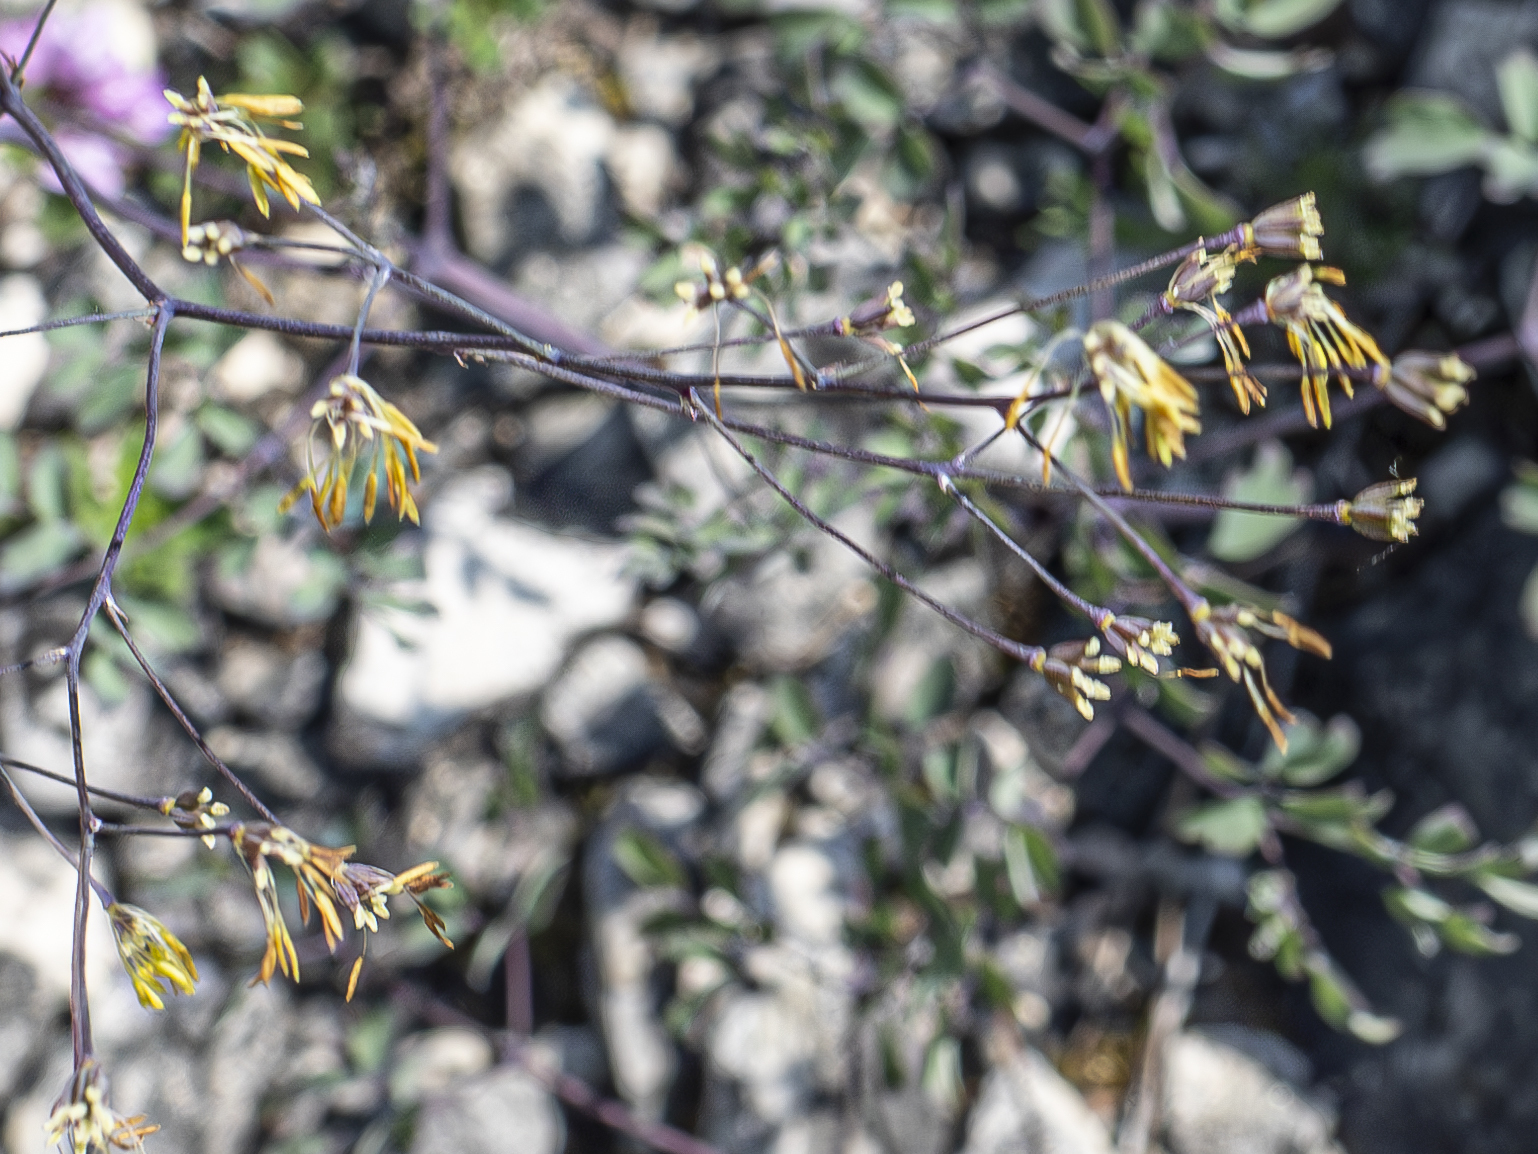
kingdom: Plantae
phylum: Tracheophyta
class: Magnoliopsida
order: Ranunculales
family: Ranunculaceae
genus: Thalictrum
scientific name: Thalictrum minus
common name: Lesser meadow-rue
